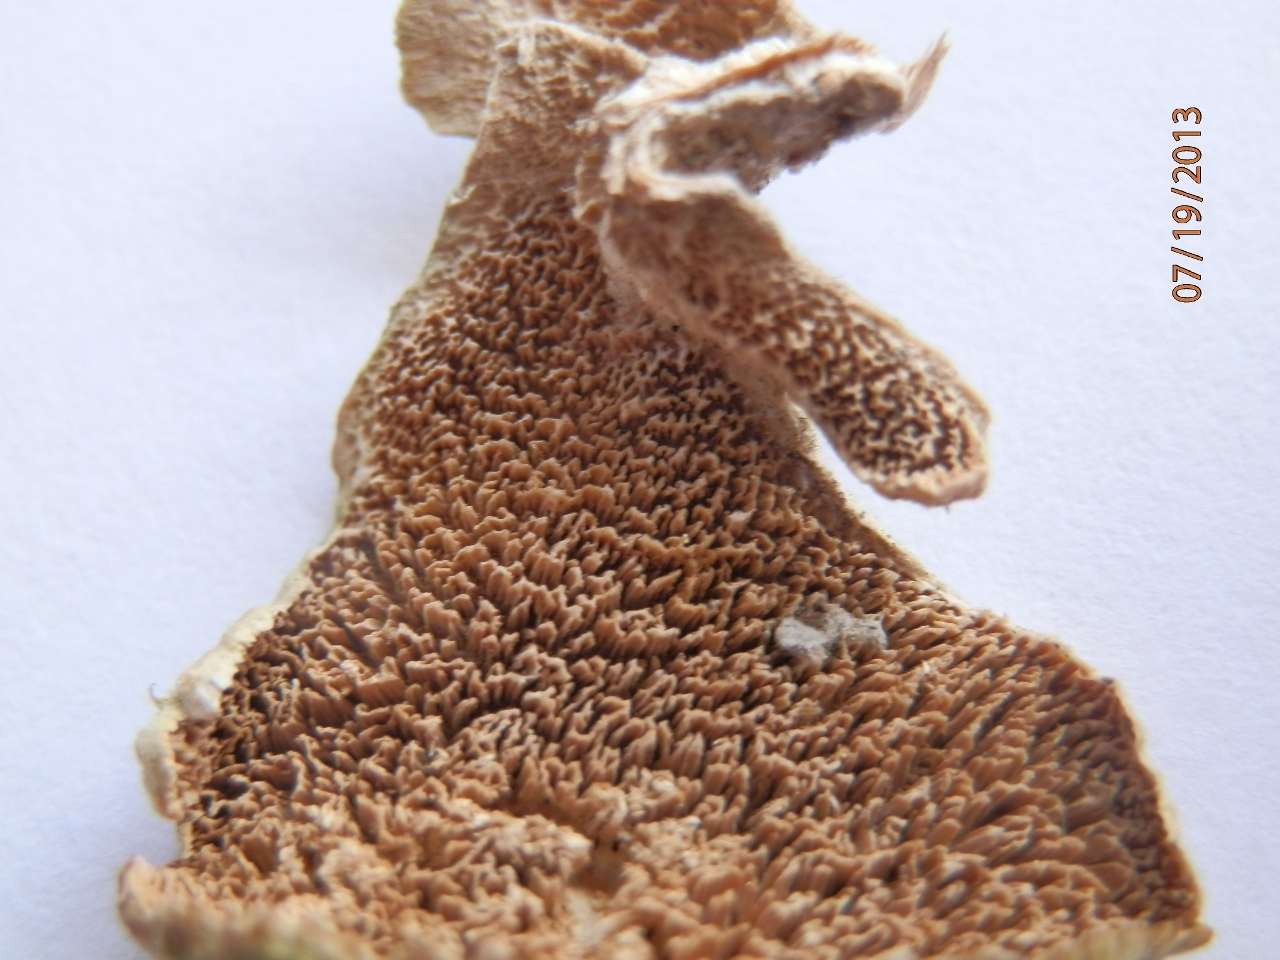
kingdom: Fungi
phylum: Basidiomycota
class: Agaricomycetes
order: Hymenochaetales
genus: Trichaptum
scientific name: Trichaptum biforme
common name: Violet-toothed polypore
